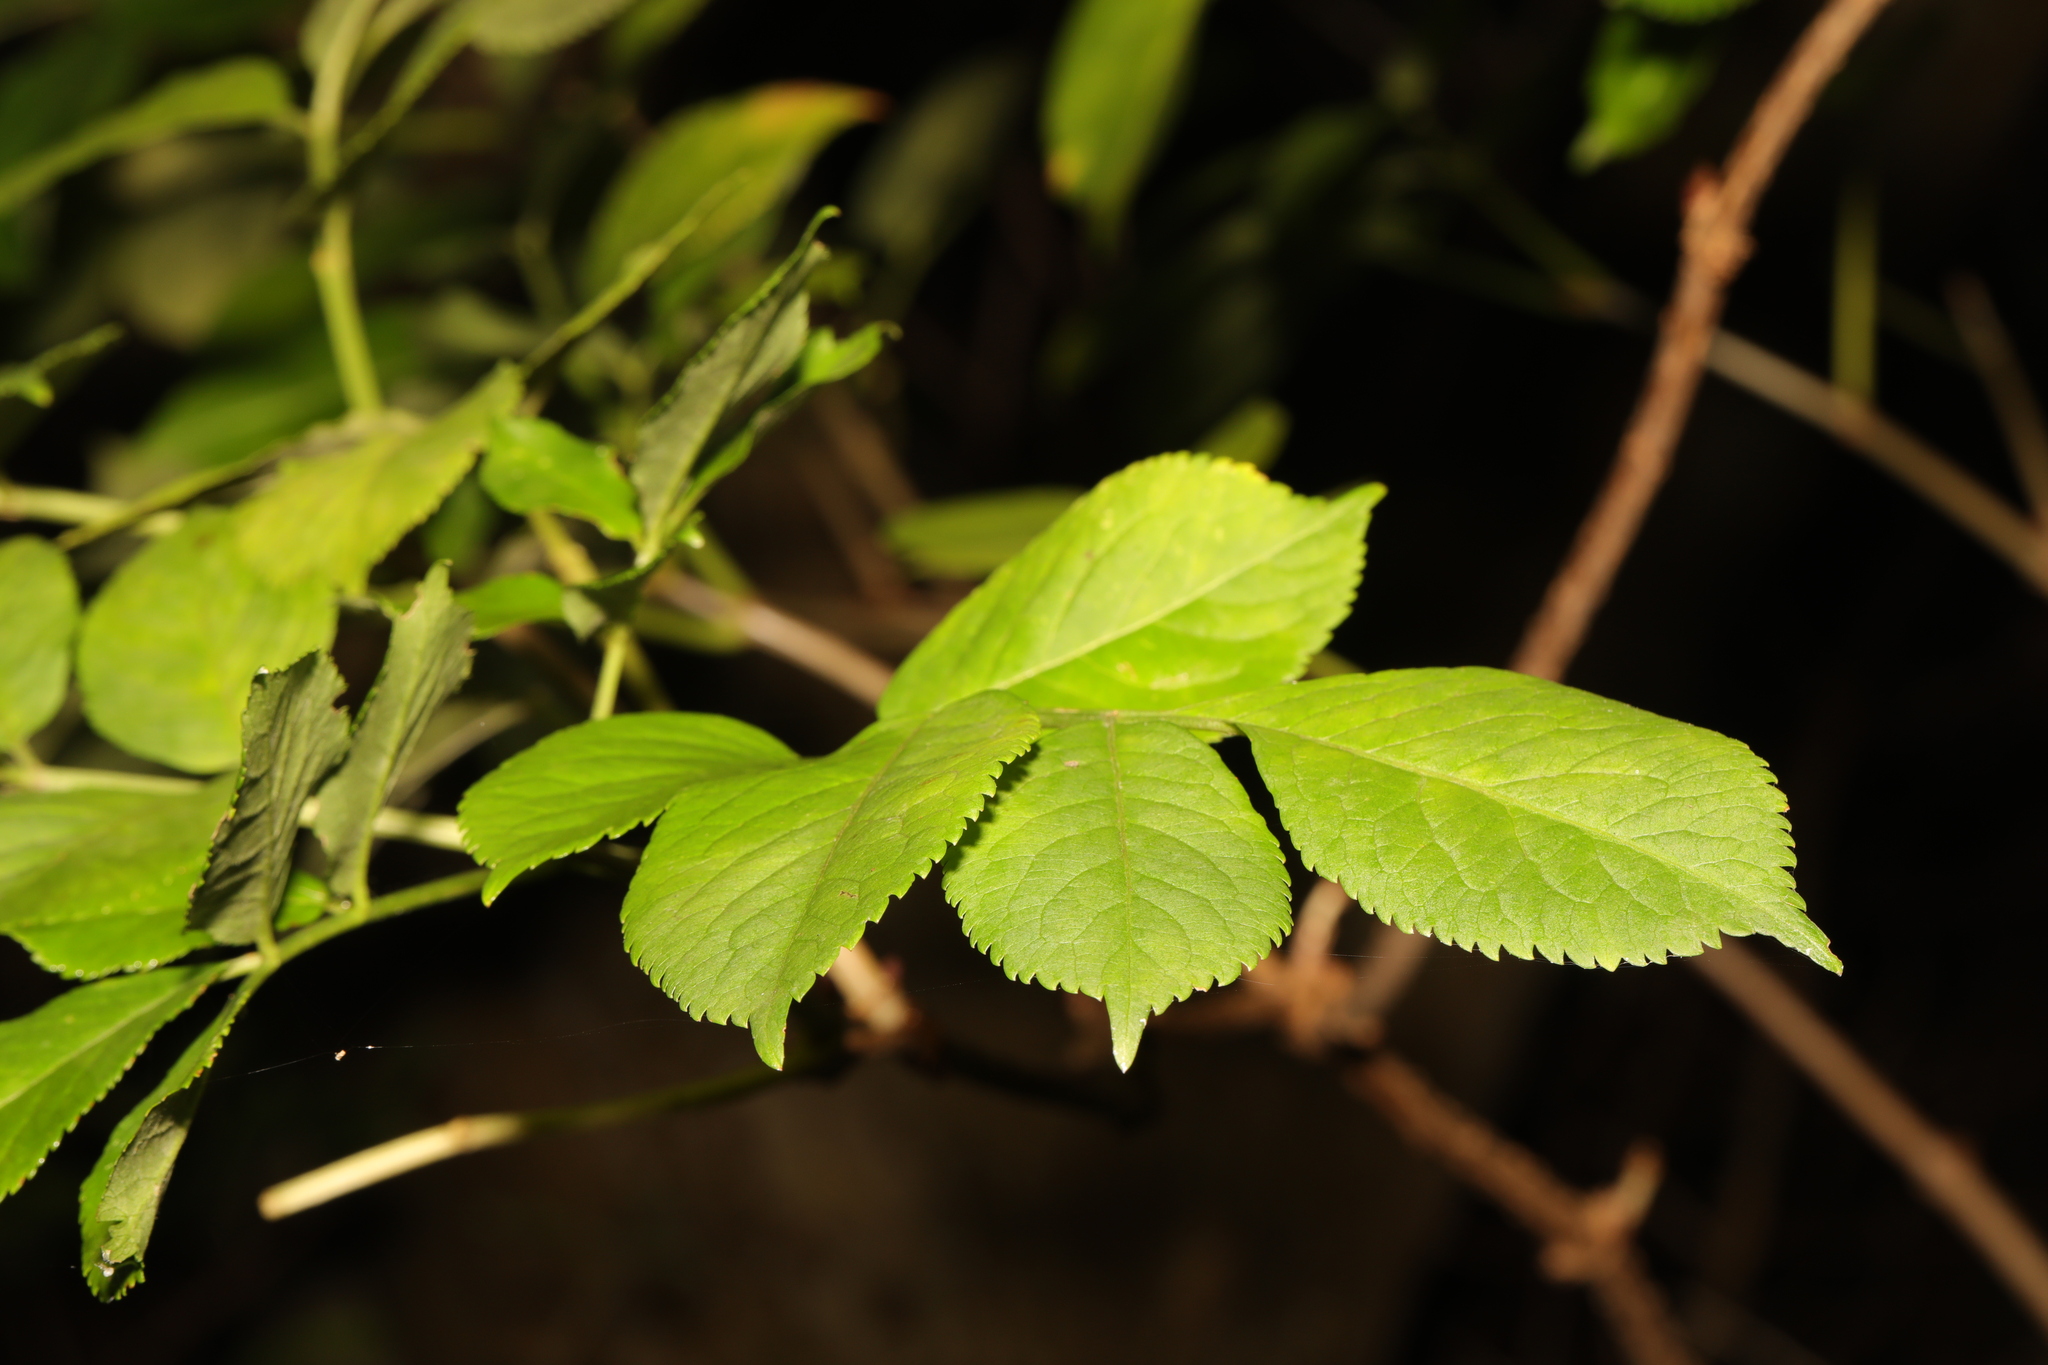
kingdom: Plantae
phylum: Tracheophyta
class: Magnoliopsida
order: Dipsacales
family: Viburnaceae
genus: Sambucus
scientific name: Sambucus nigra
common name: Elder
